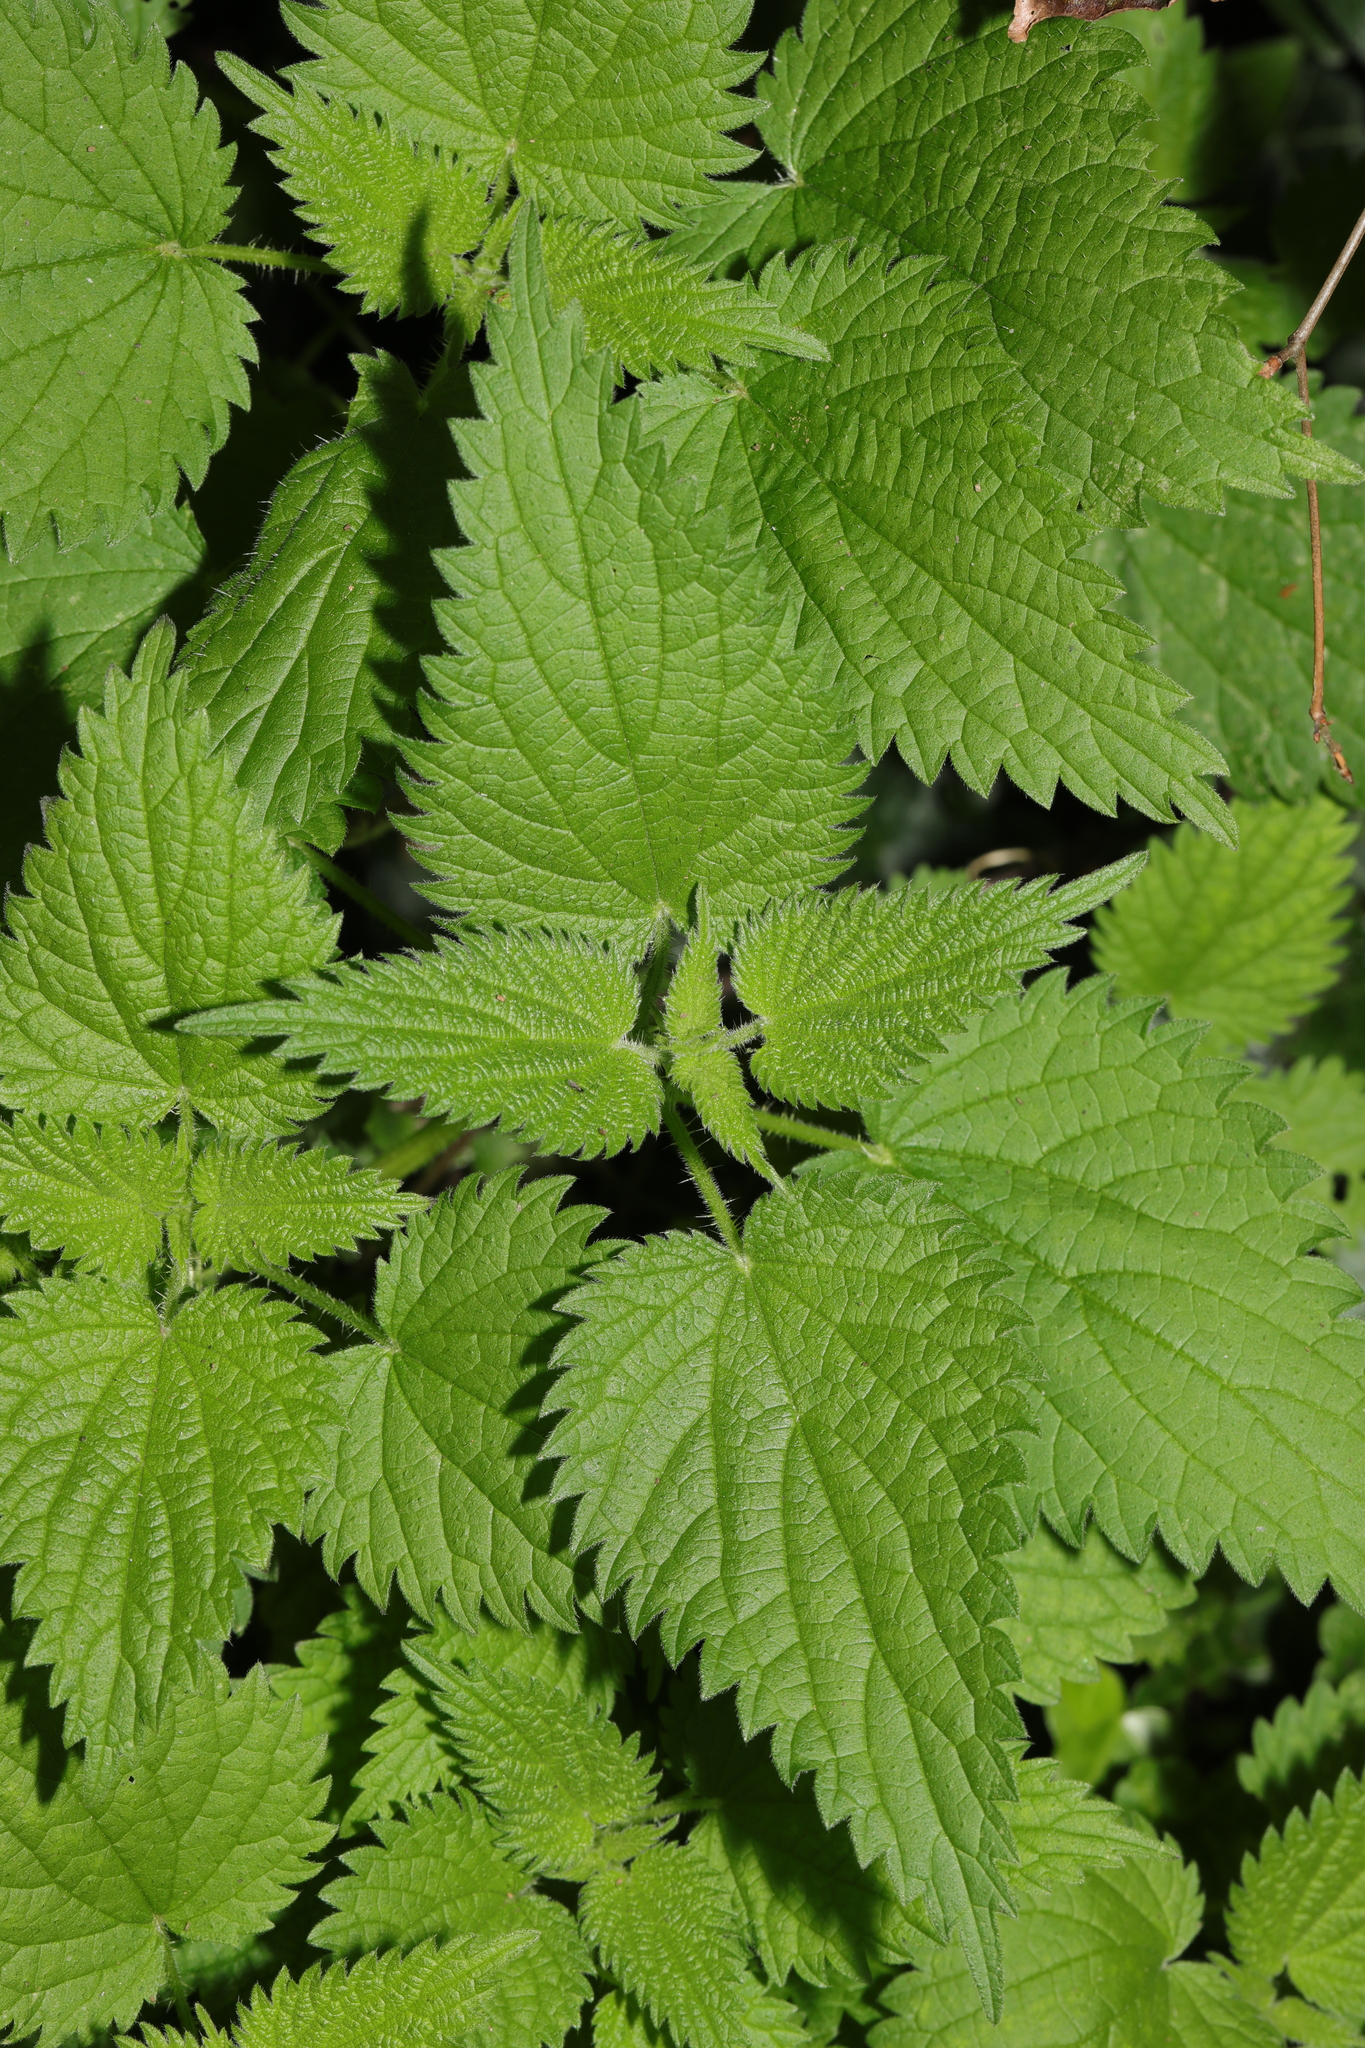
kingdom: Plantae
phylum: Tracheophyta
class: Magnoliopsida
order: Rosales
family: Urticaceae
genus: Urtica
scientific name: Urtica dioica
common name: Common nettle
